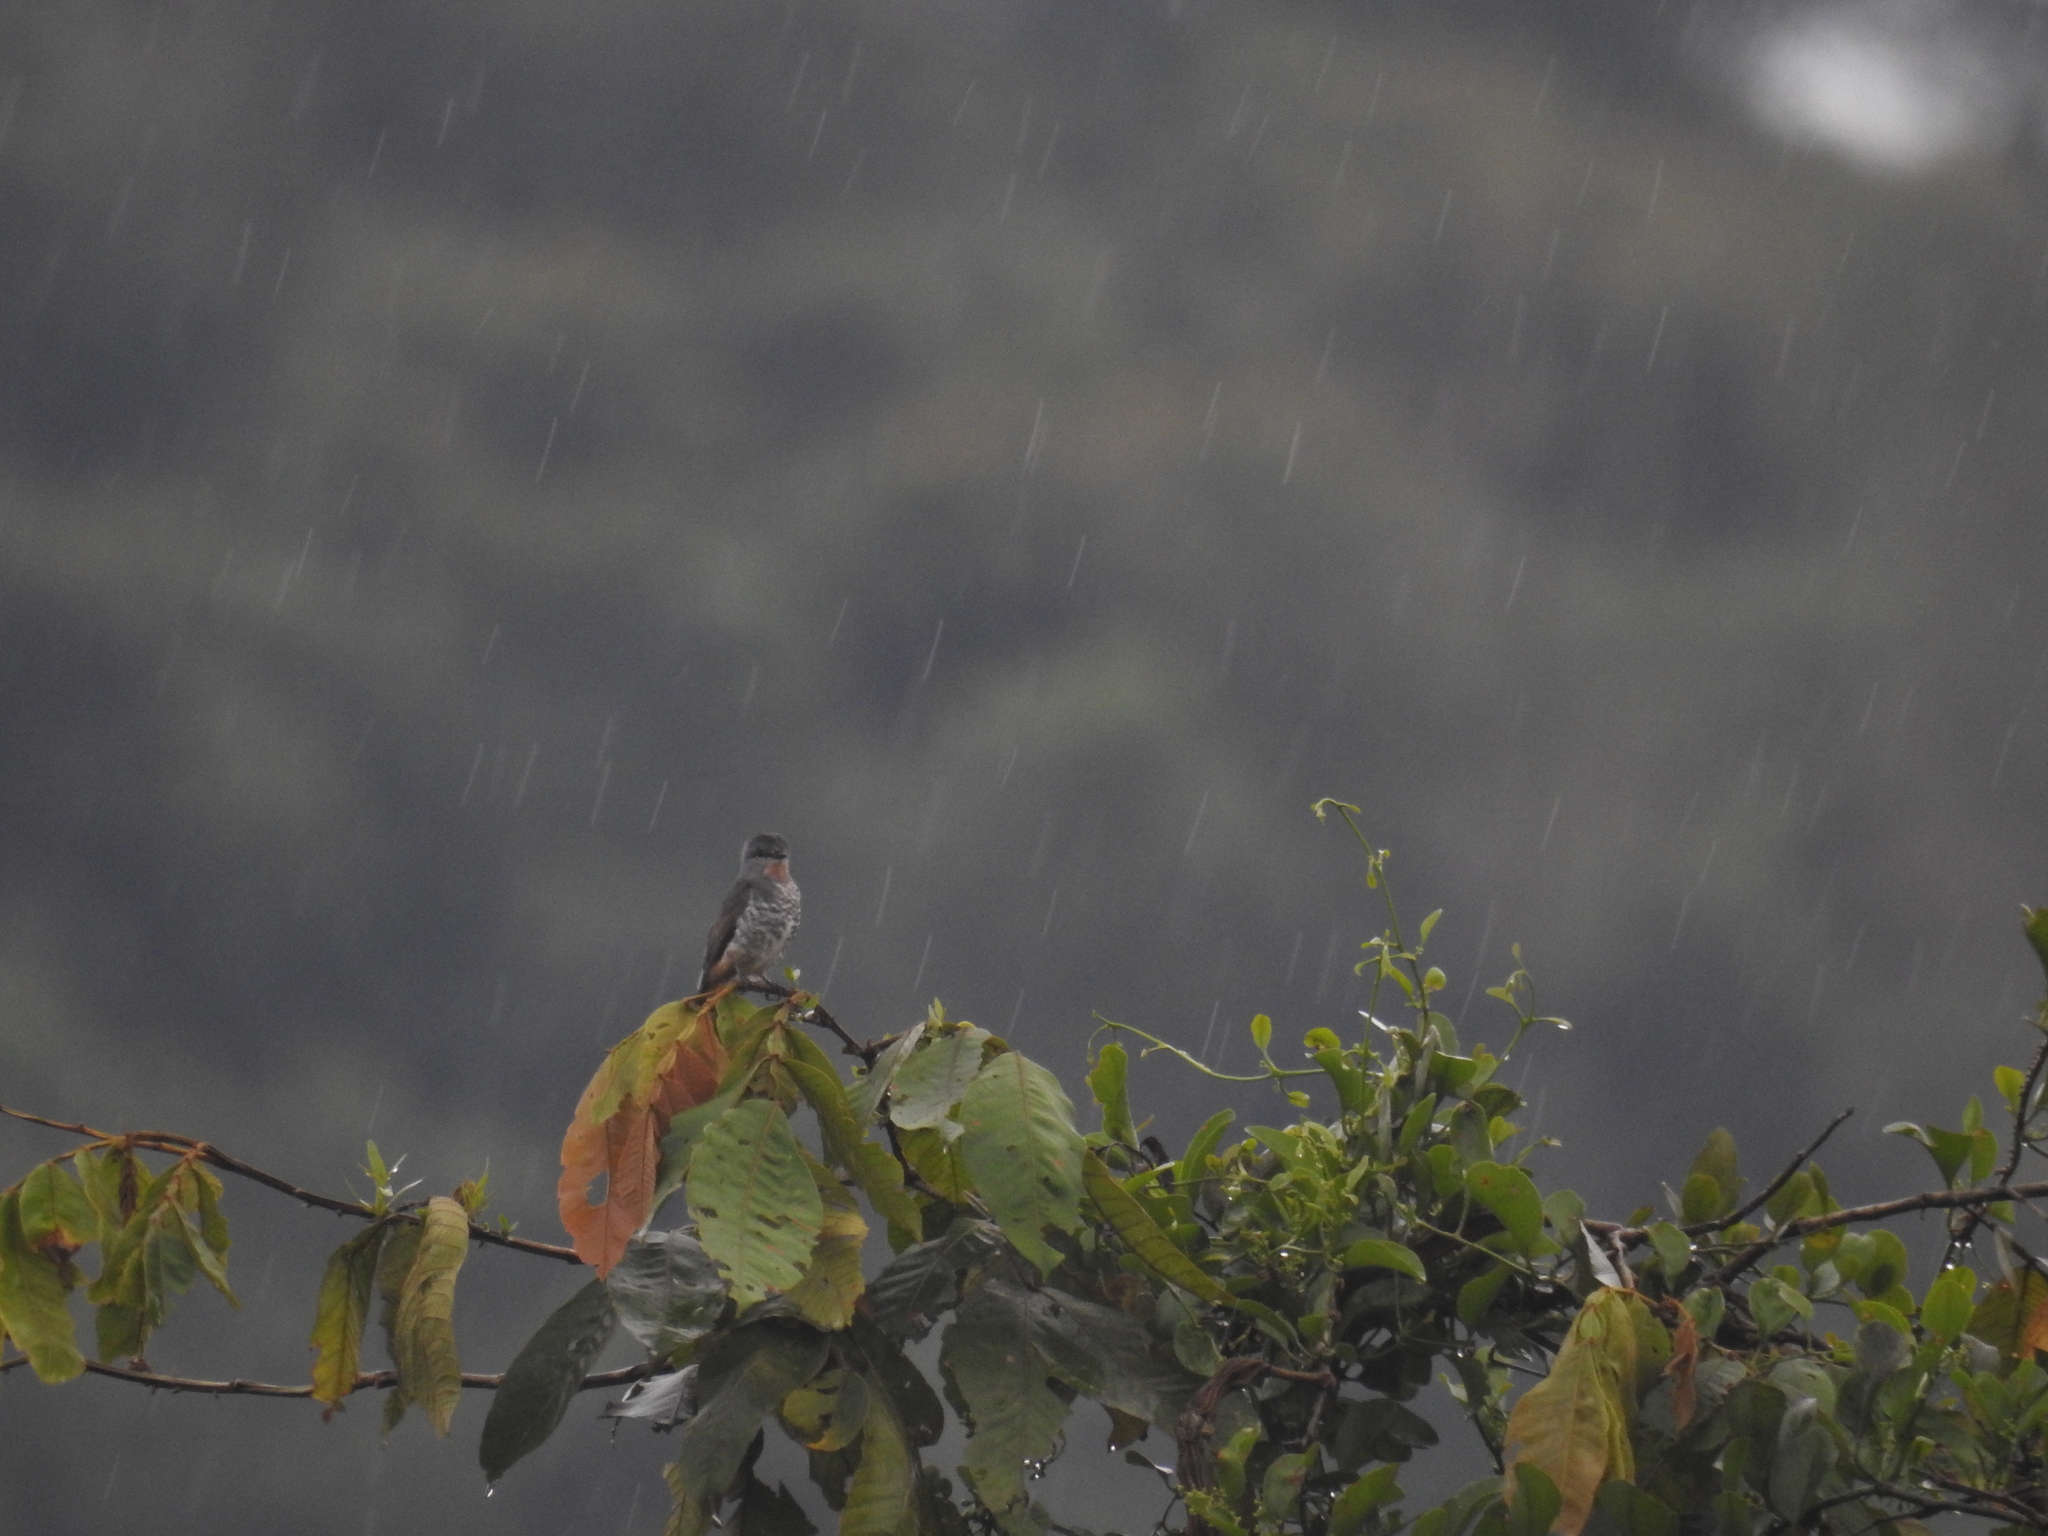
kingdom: Animalia
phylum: Chordata
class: Aves
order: Passeriformes
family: Cotingidae
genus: Iodopleura
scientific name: Iodopleura pipra
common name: Buff-throated purpletuft
